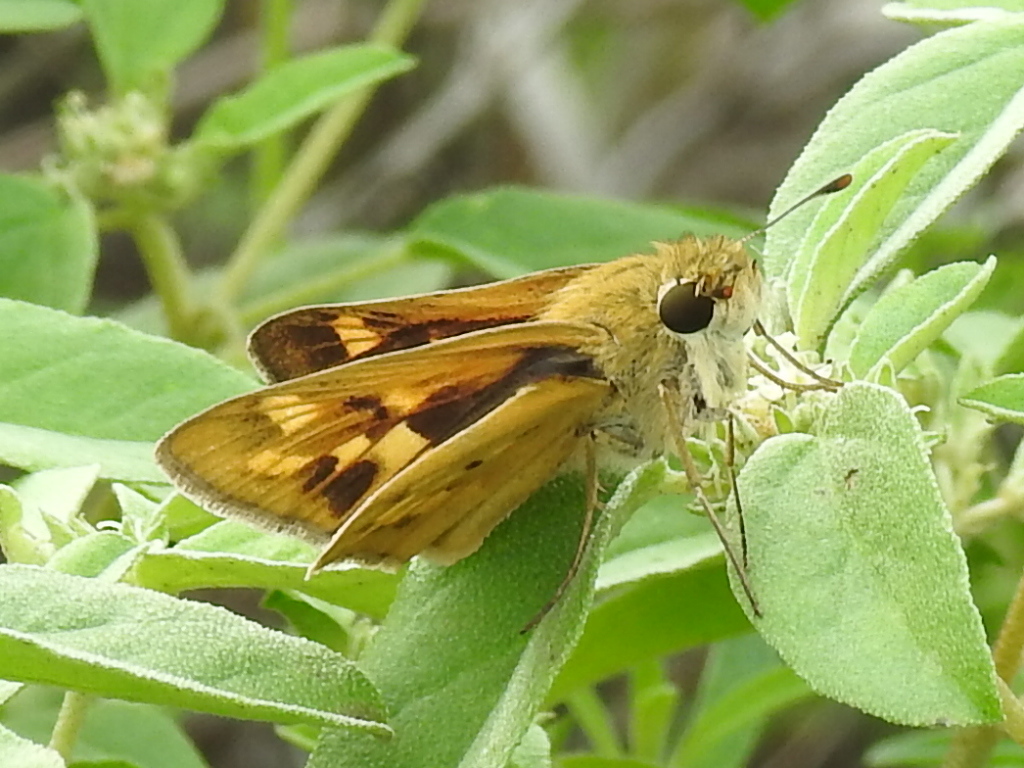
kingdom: Animalia
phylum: Arthropoda
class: Insecta
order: Lepidoptera
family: Hesperiidae
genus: Hylephila
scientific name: Hylephila phyleus
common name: Fiery skipper
